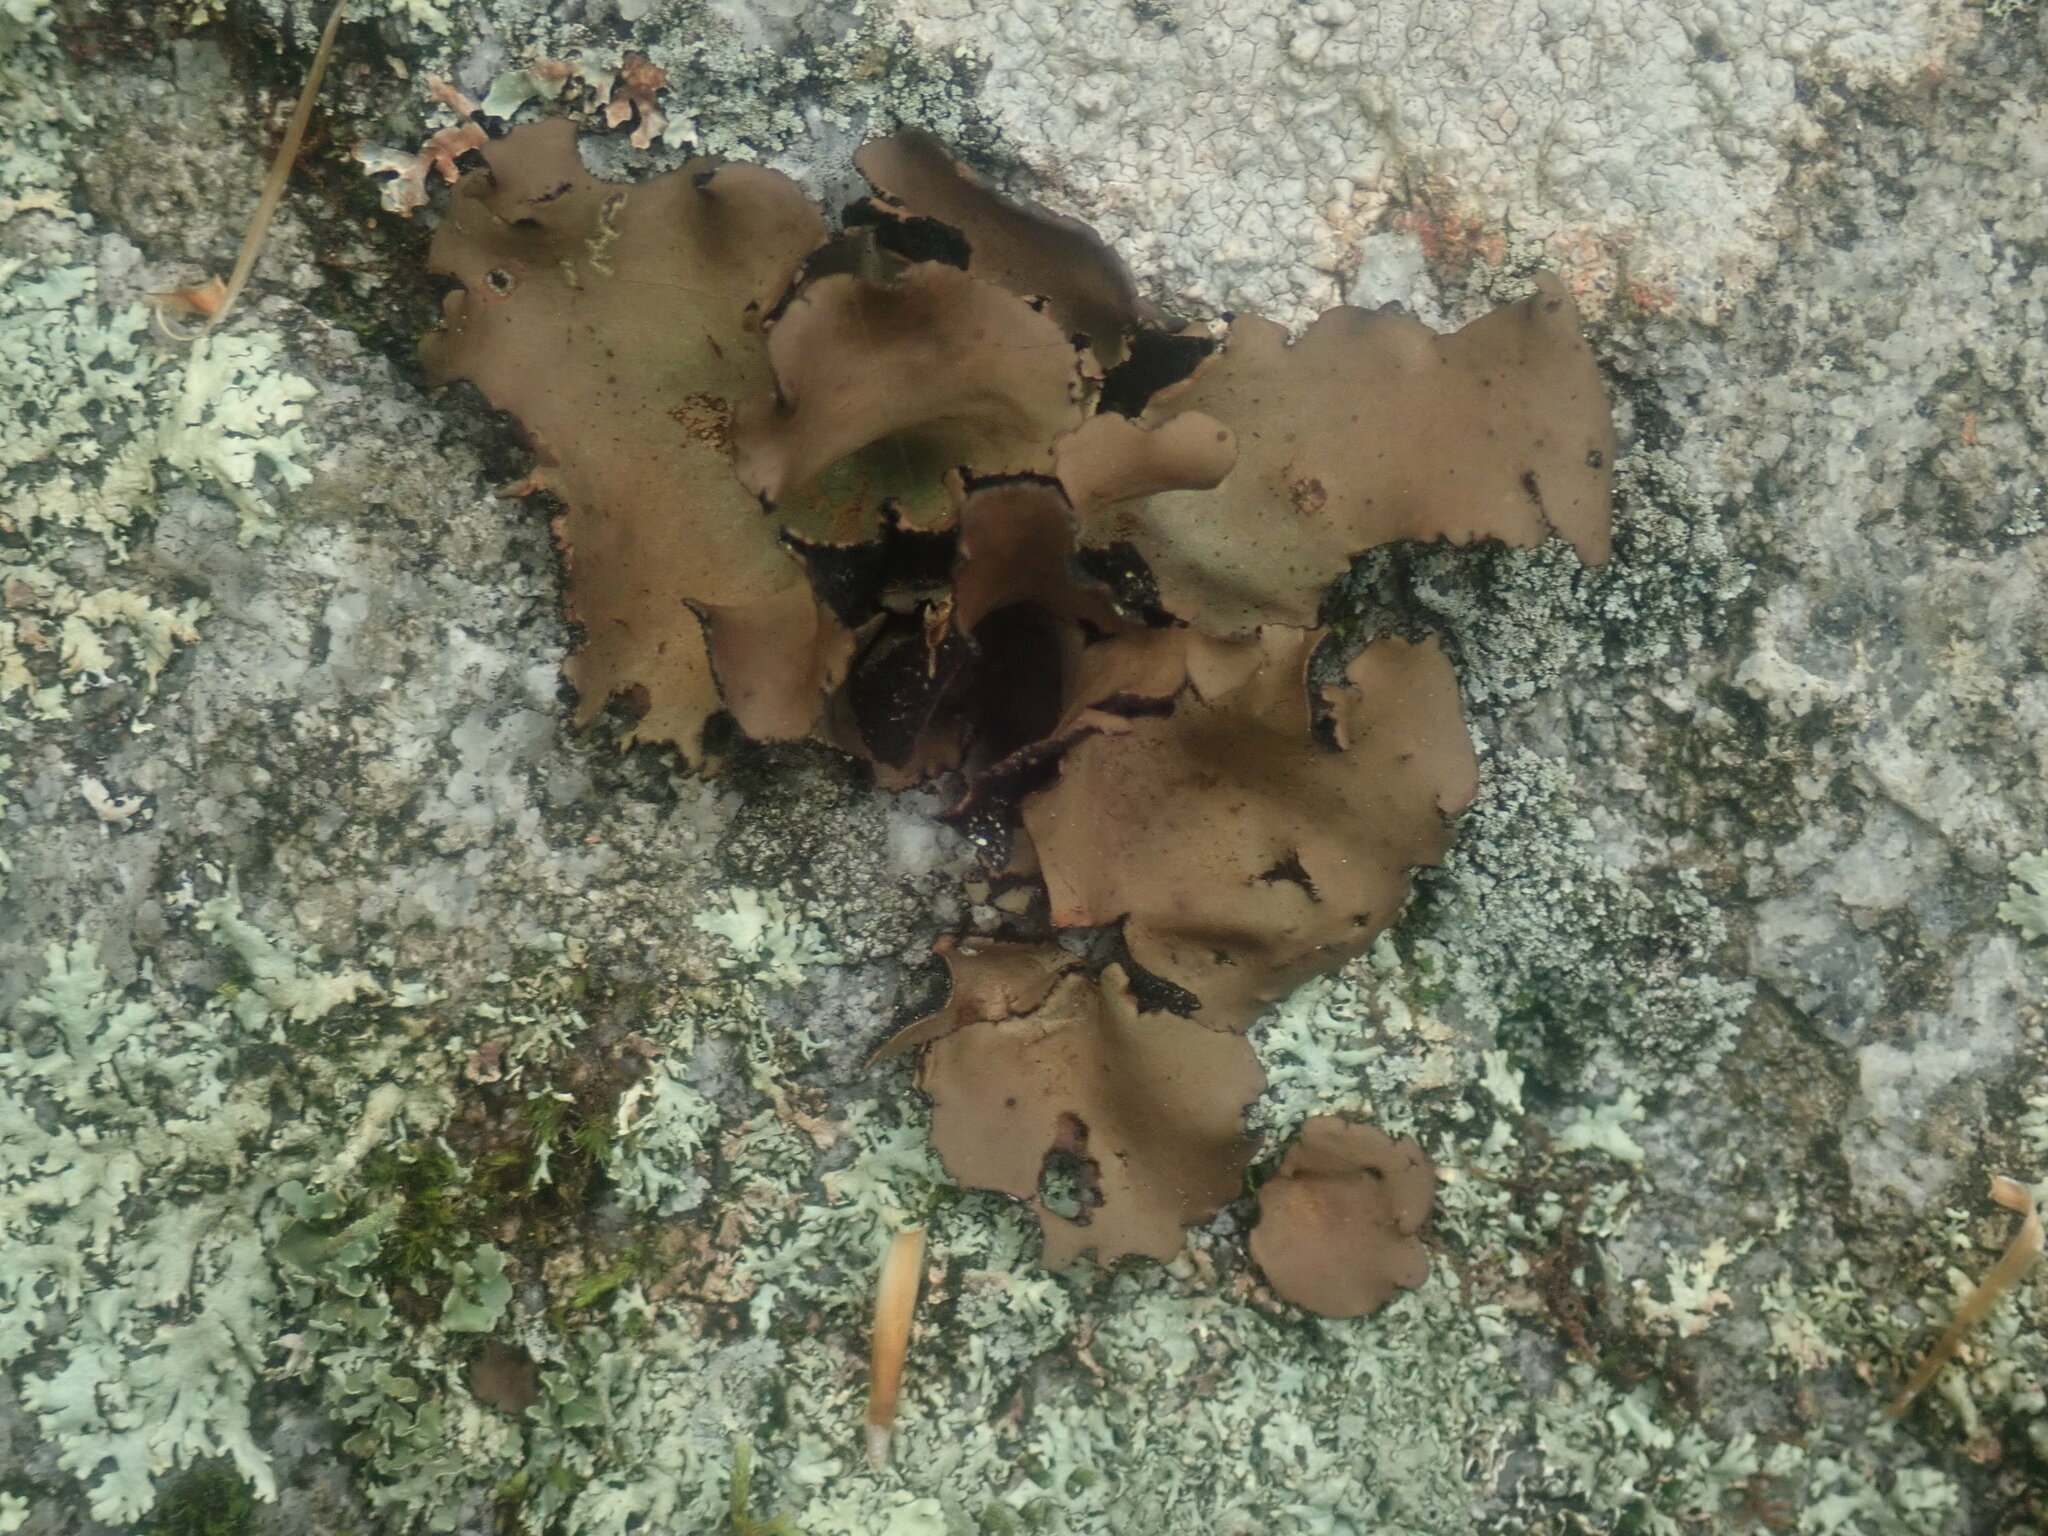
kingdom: Fungi
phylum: Ascomycota
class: Lecanoromycetes
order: Umbilicariales
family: Umbilicariaceae
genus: Umbilicaria
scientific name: Umbilicaria mammulata
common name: Smooth rock tripe
